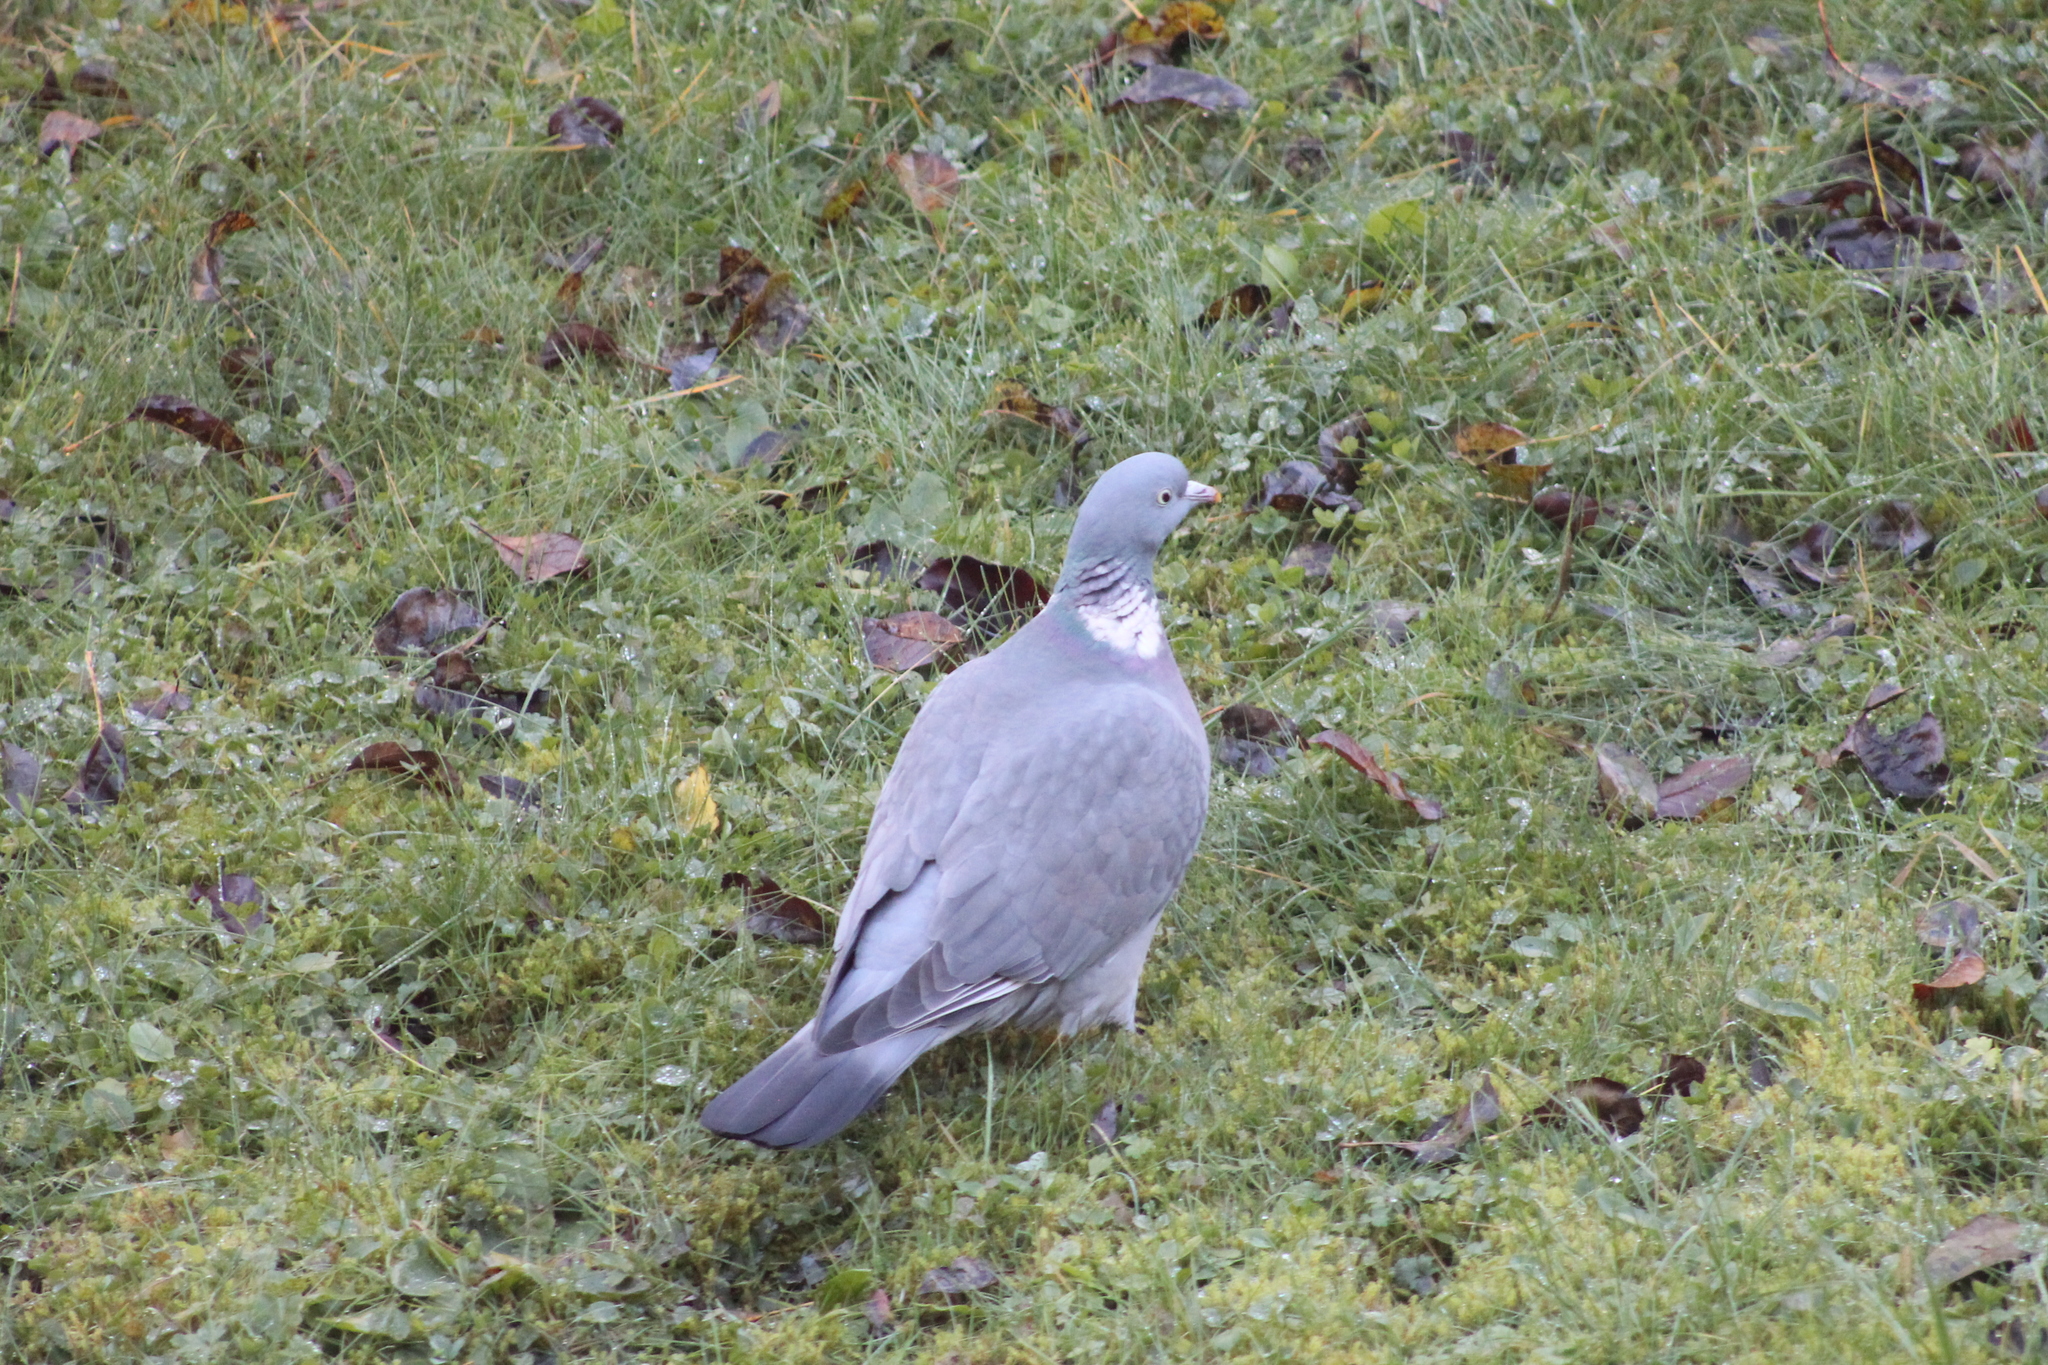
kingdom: Animalia
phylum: Chordata
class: Aves
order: Columbiformes
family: Columbidae
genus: Columba
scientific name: Columba palumbus
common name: Common wood pigeon
